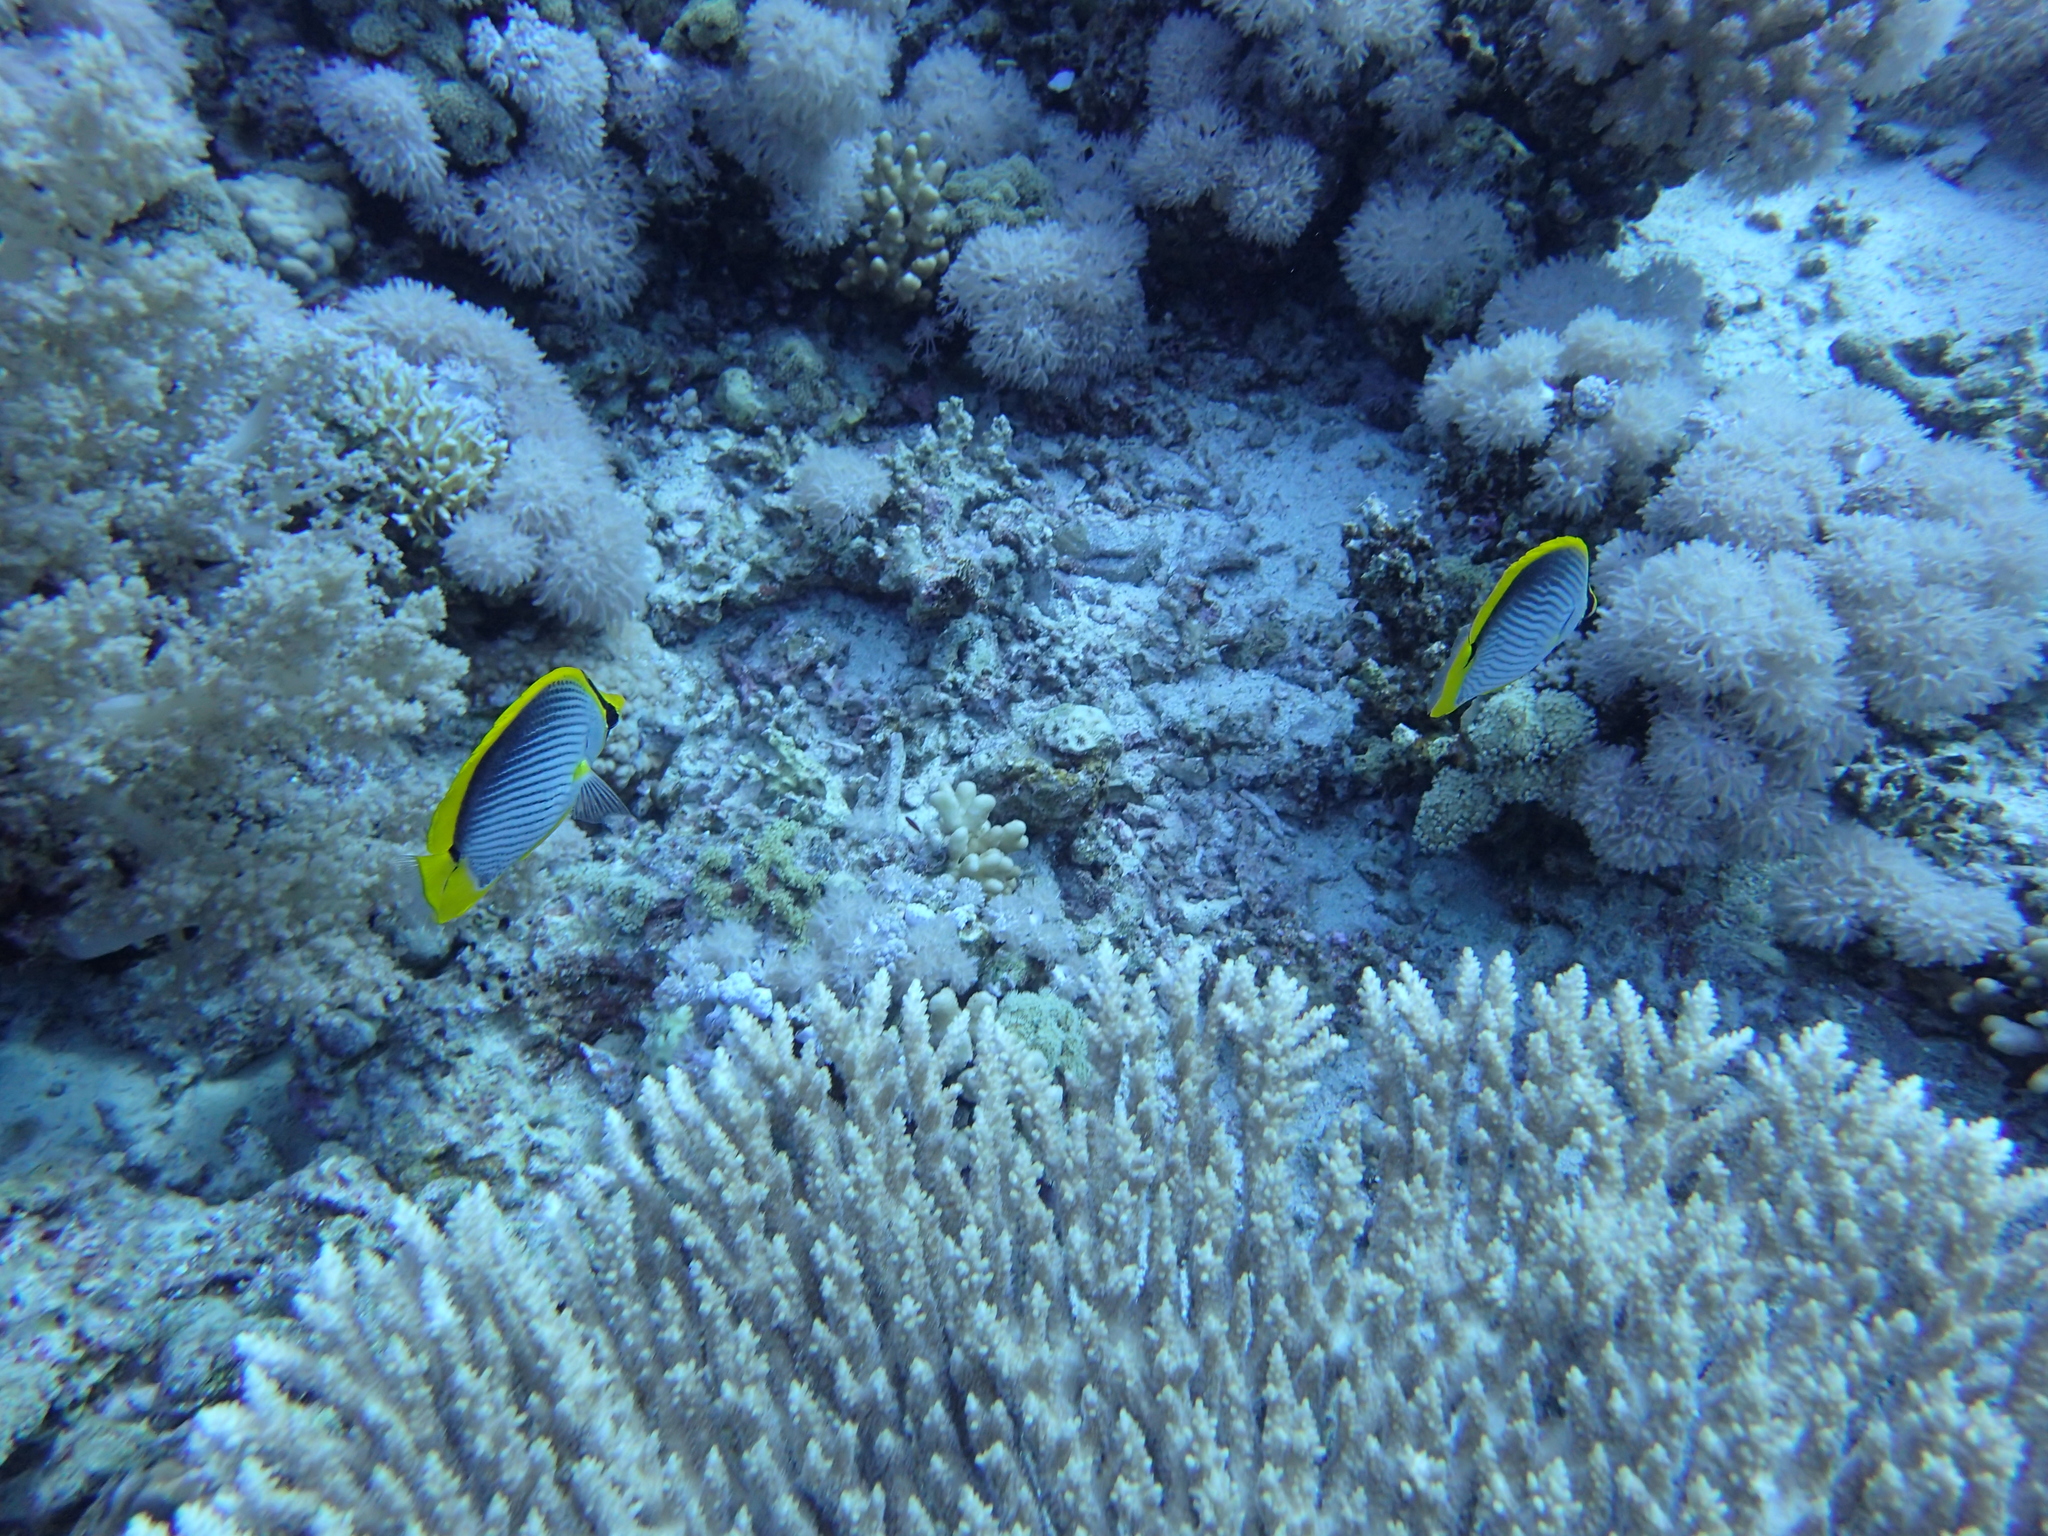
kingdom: Animalia
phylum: Chordata
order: Perciformes
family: Chaetodontidae
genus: Chaetodon
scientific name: Chaetodon melannotus
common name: Blackback butterflyfish
